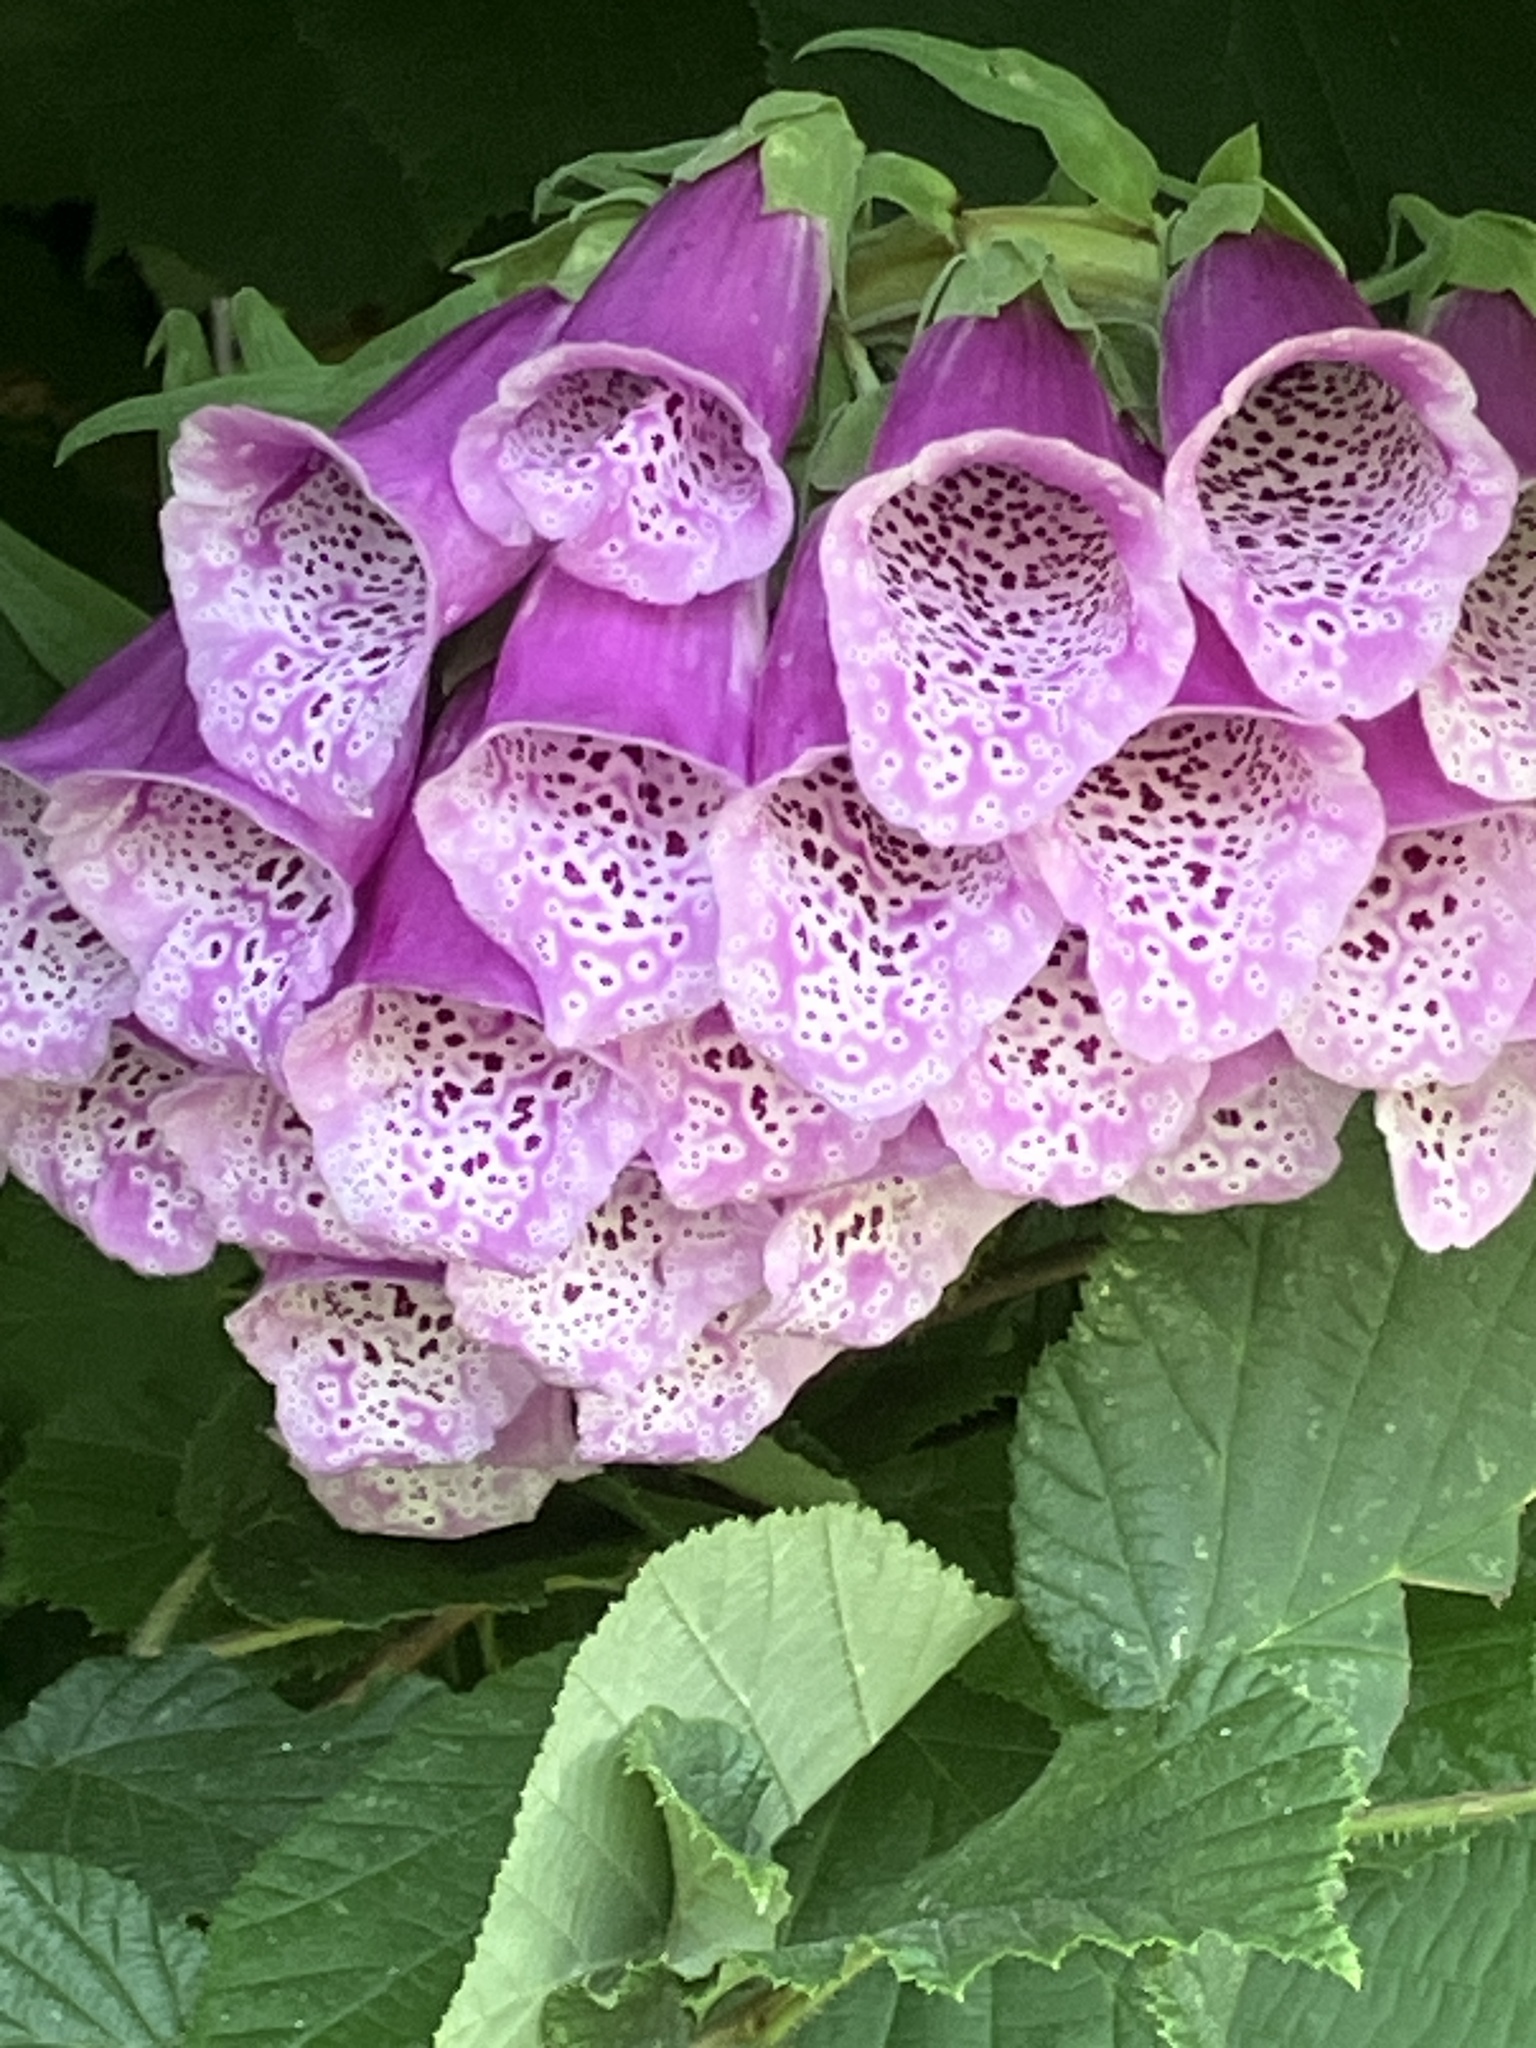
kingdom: Plantae
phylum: Tracheophyta
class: Magnoliopsida
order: Lamiales
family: Plantaginaceae
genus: Digitalis
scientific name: Digitalis purpurea
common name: Foxglove
